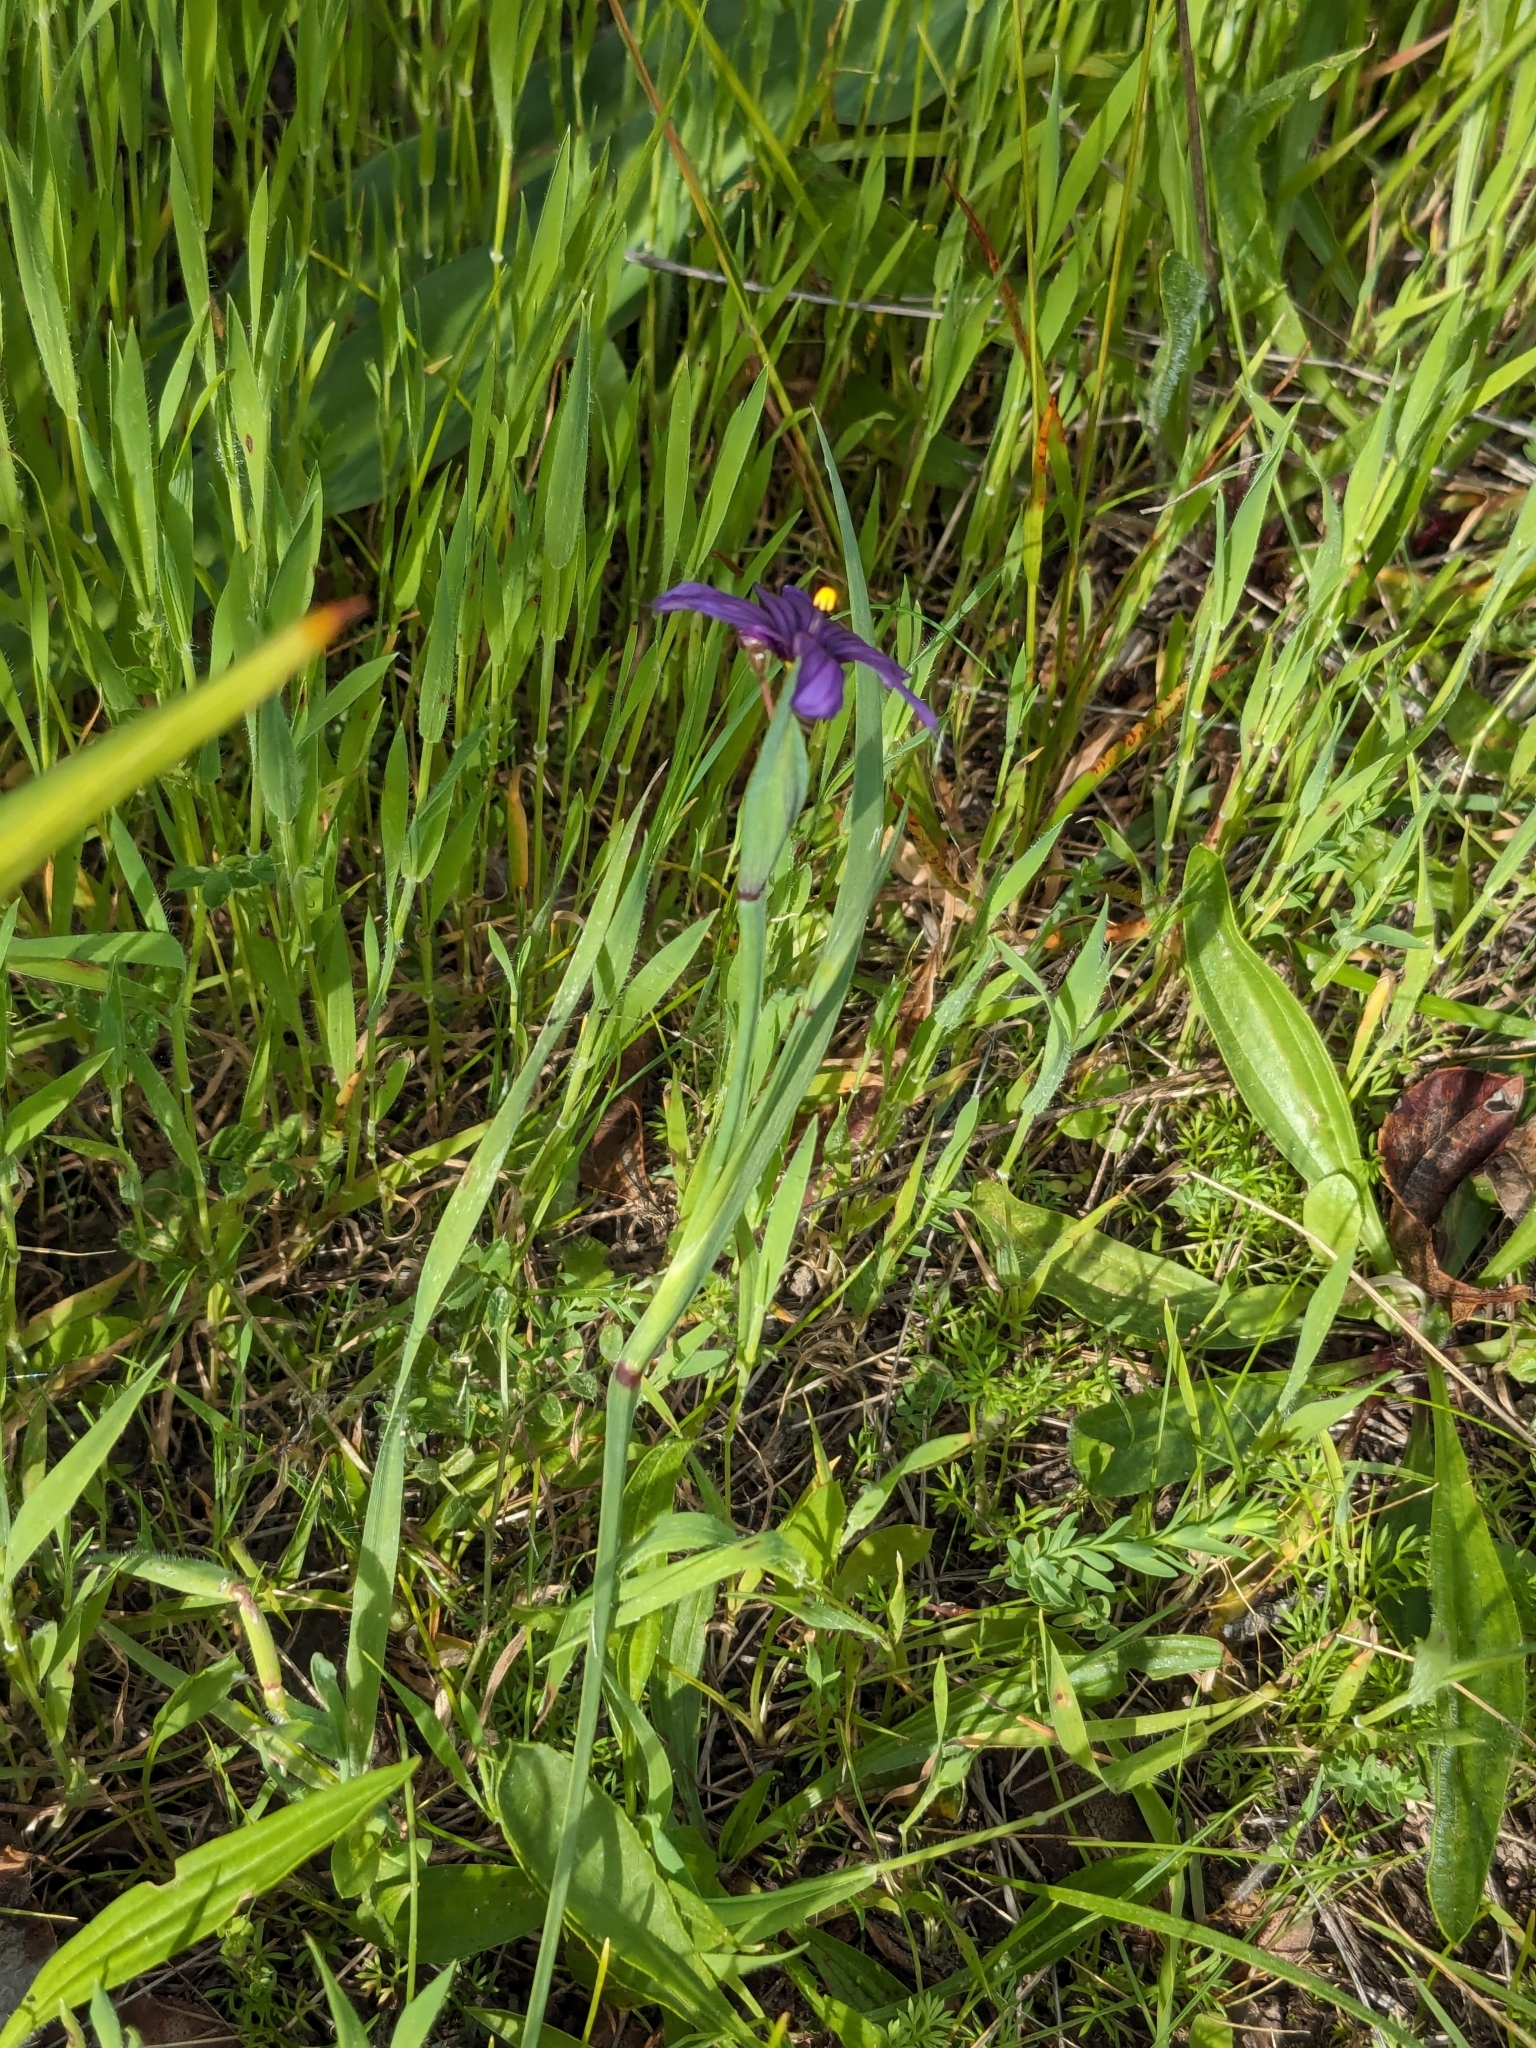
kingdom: Plantae
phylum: Tracheophyta
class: Liliopsida
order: Asparagales
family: Iridaceae
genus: Sisyrinchium
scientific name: Sisyrinchium bellum
